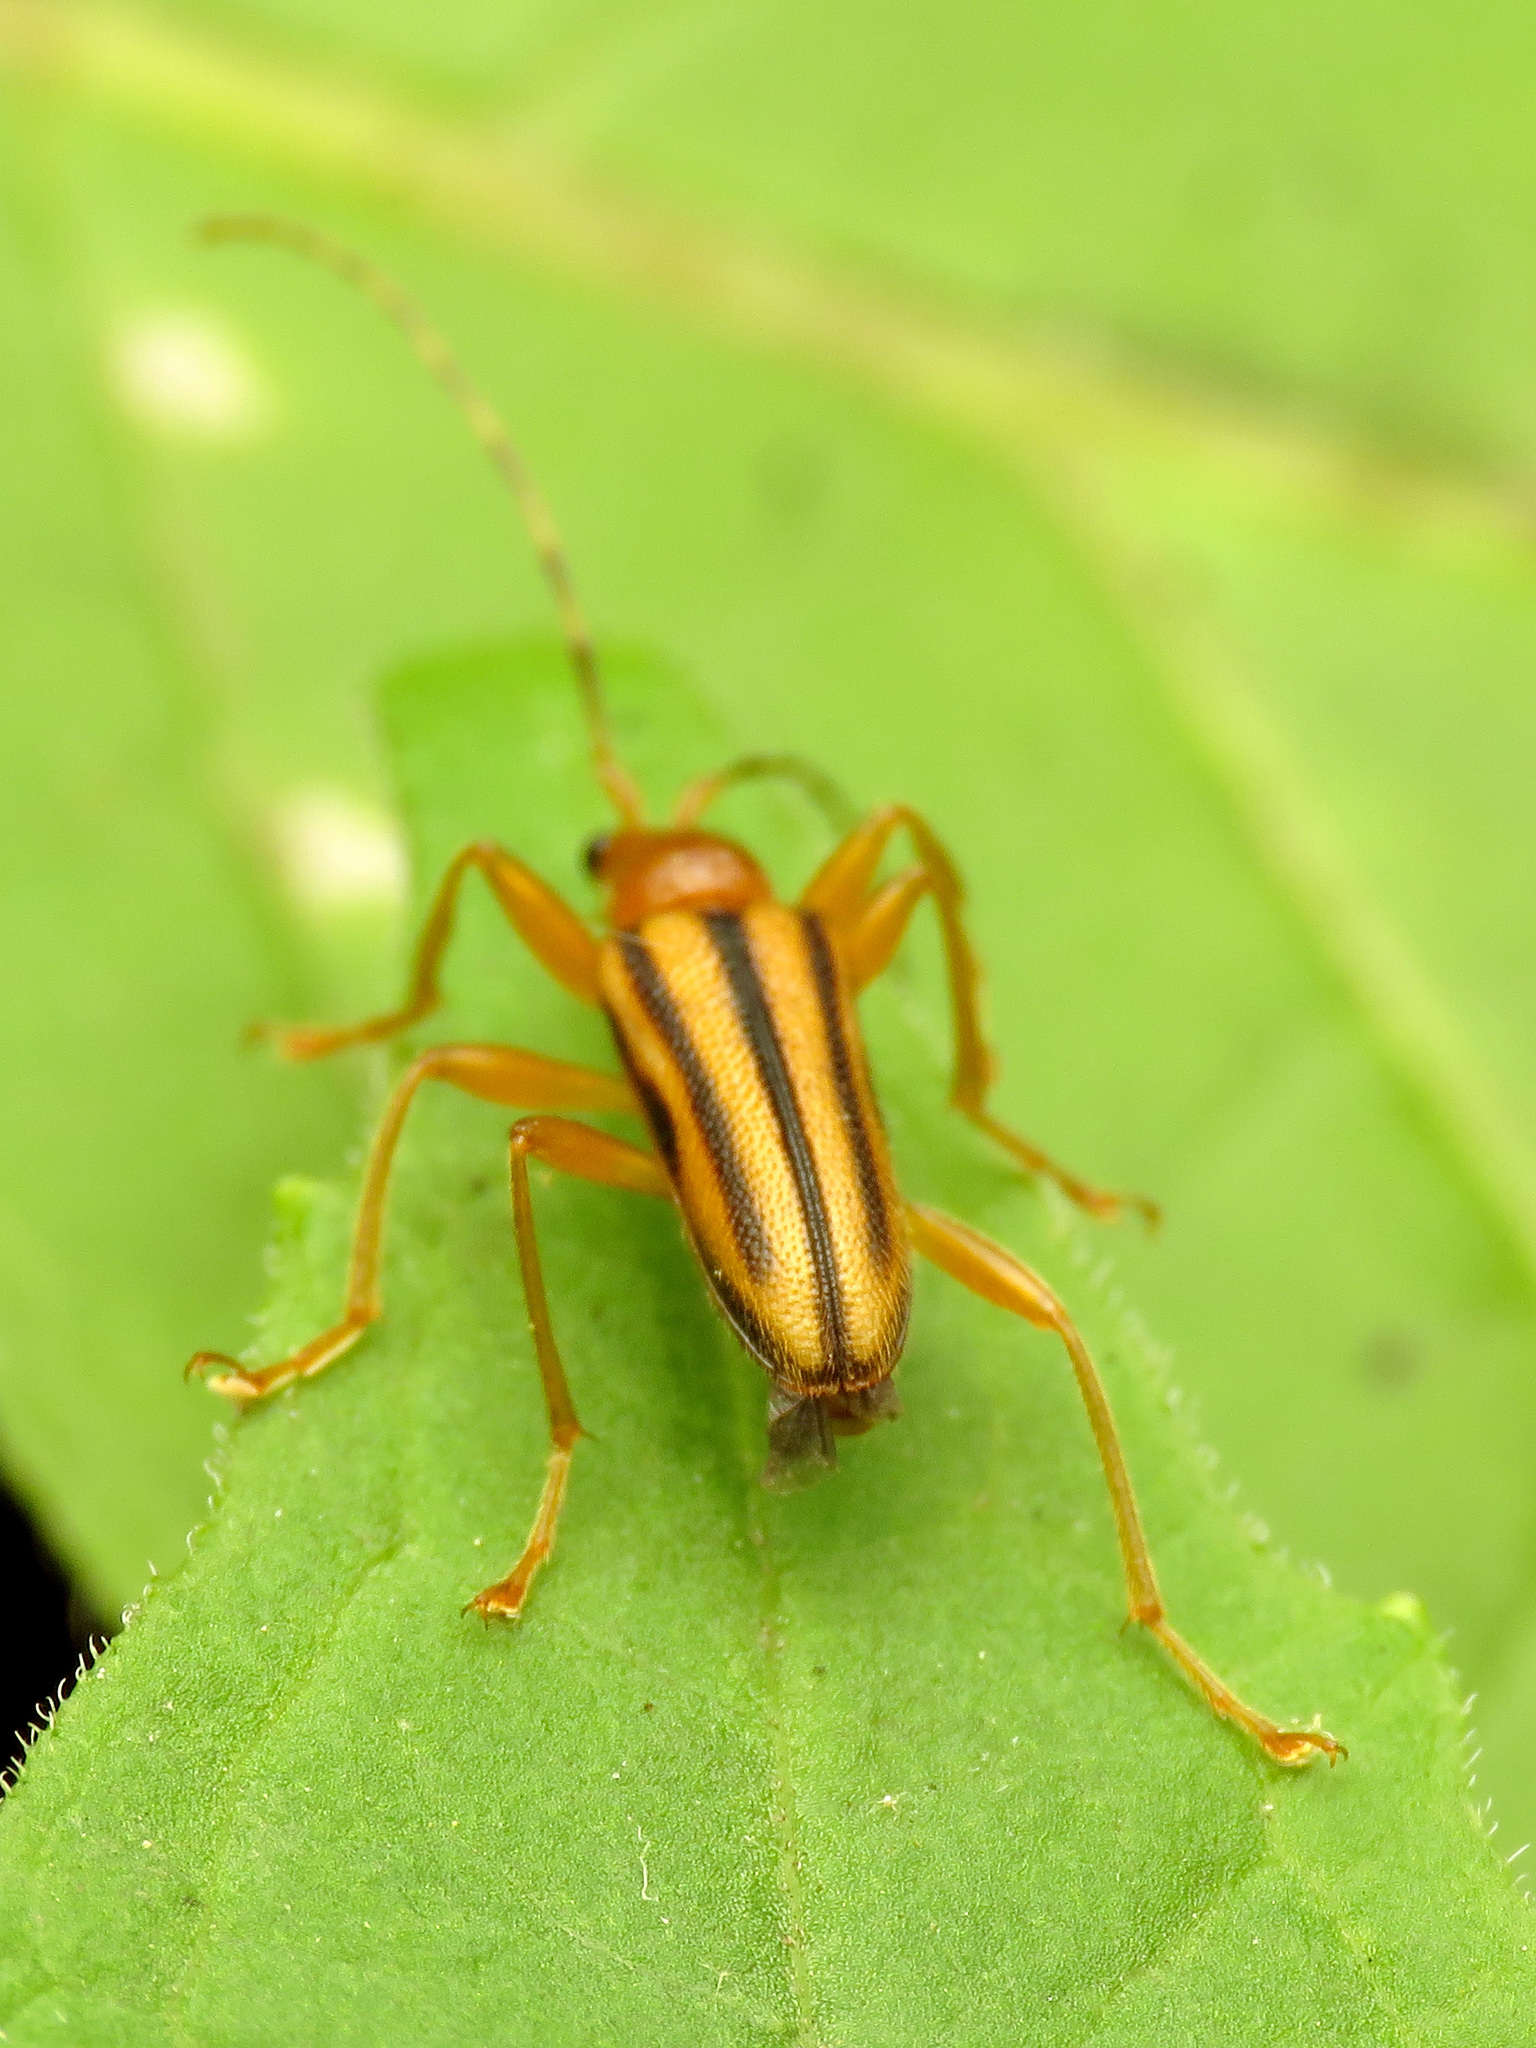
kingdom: Animalia
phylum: Arthropoda
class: Insecta
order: Coleoptera
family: Cerambycidae
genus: Metacmaeops
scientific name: Metacmaeops vittata
